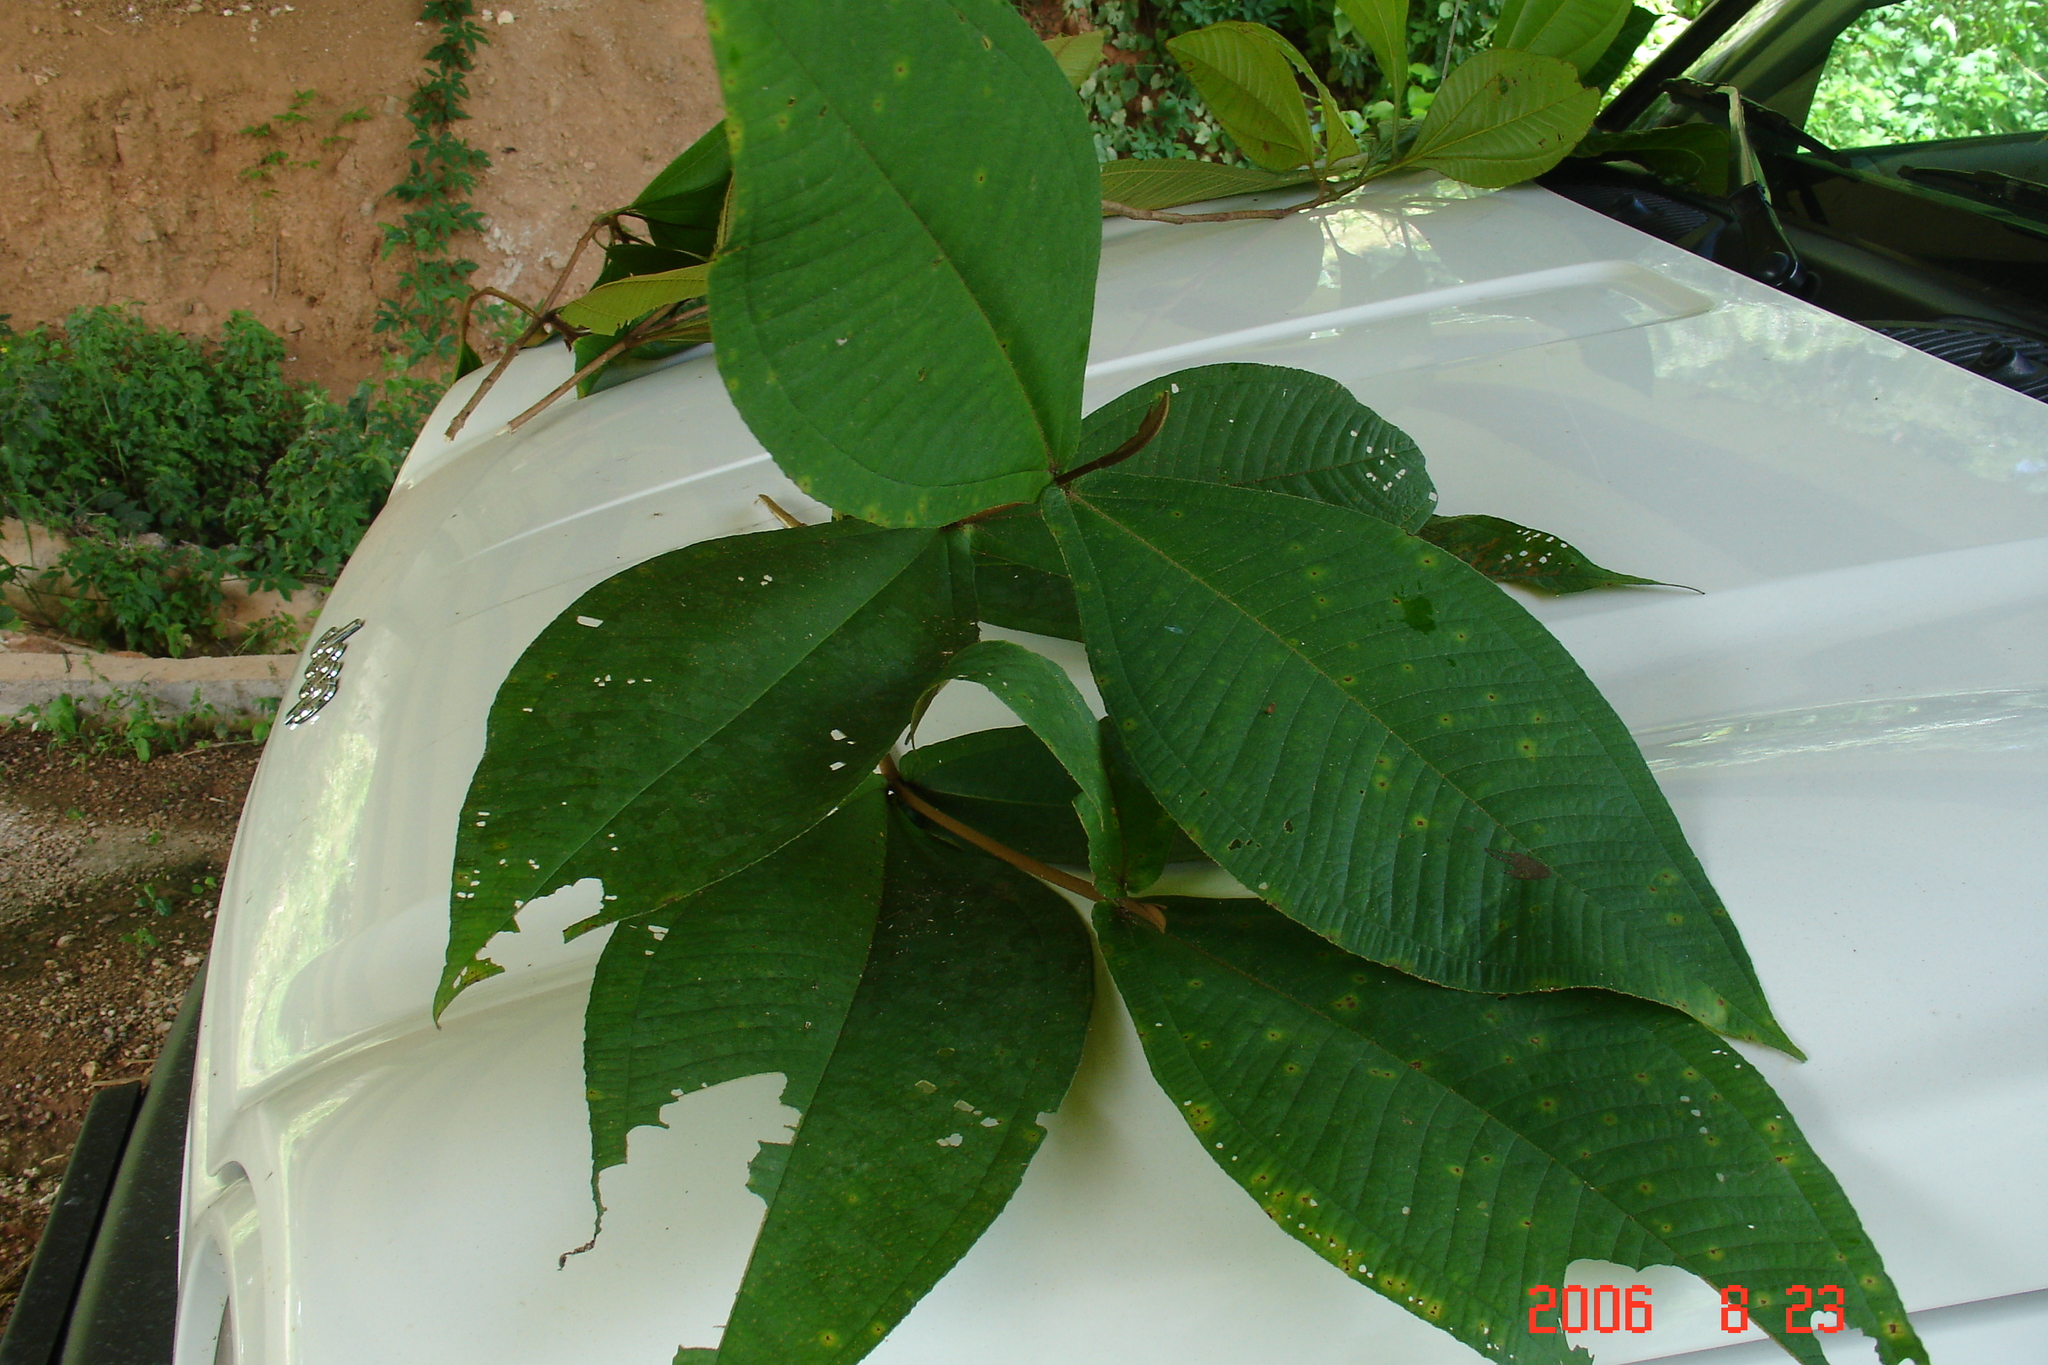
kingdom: Plantae
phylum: Tracheophyta
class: Magnoliopsida
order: Myrtales
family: Melastomataceae
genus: Miconia
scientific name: Miconia impetiolaris
